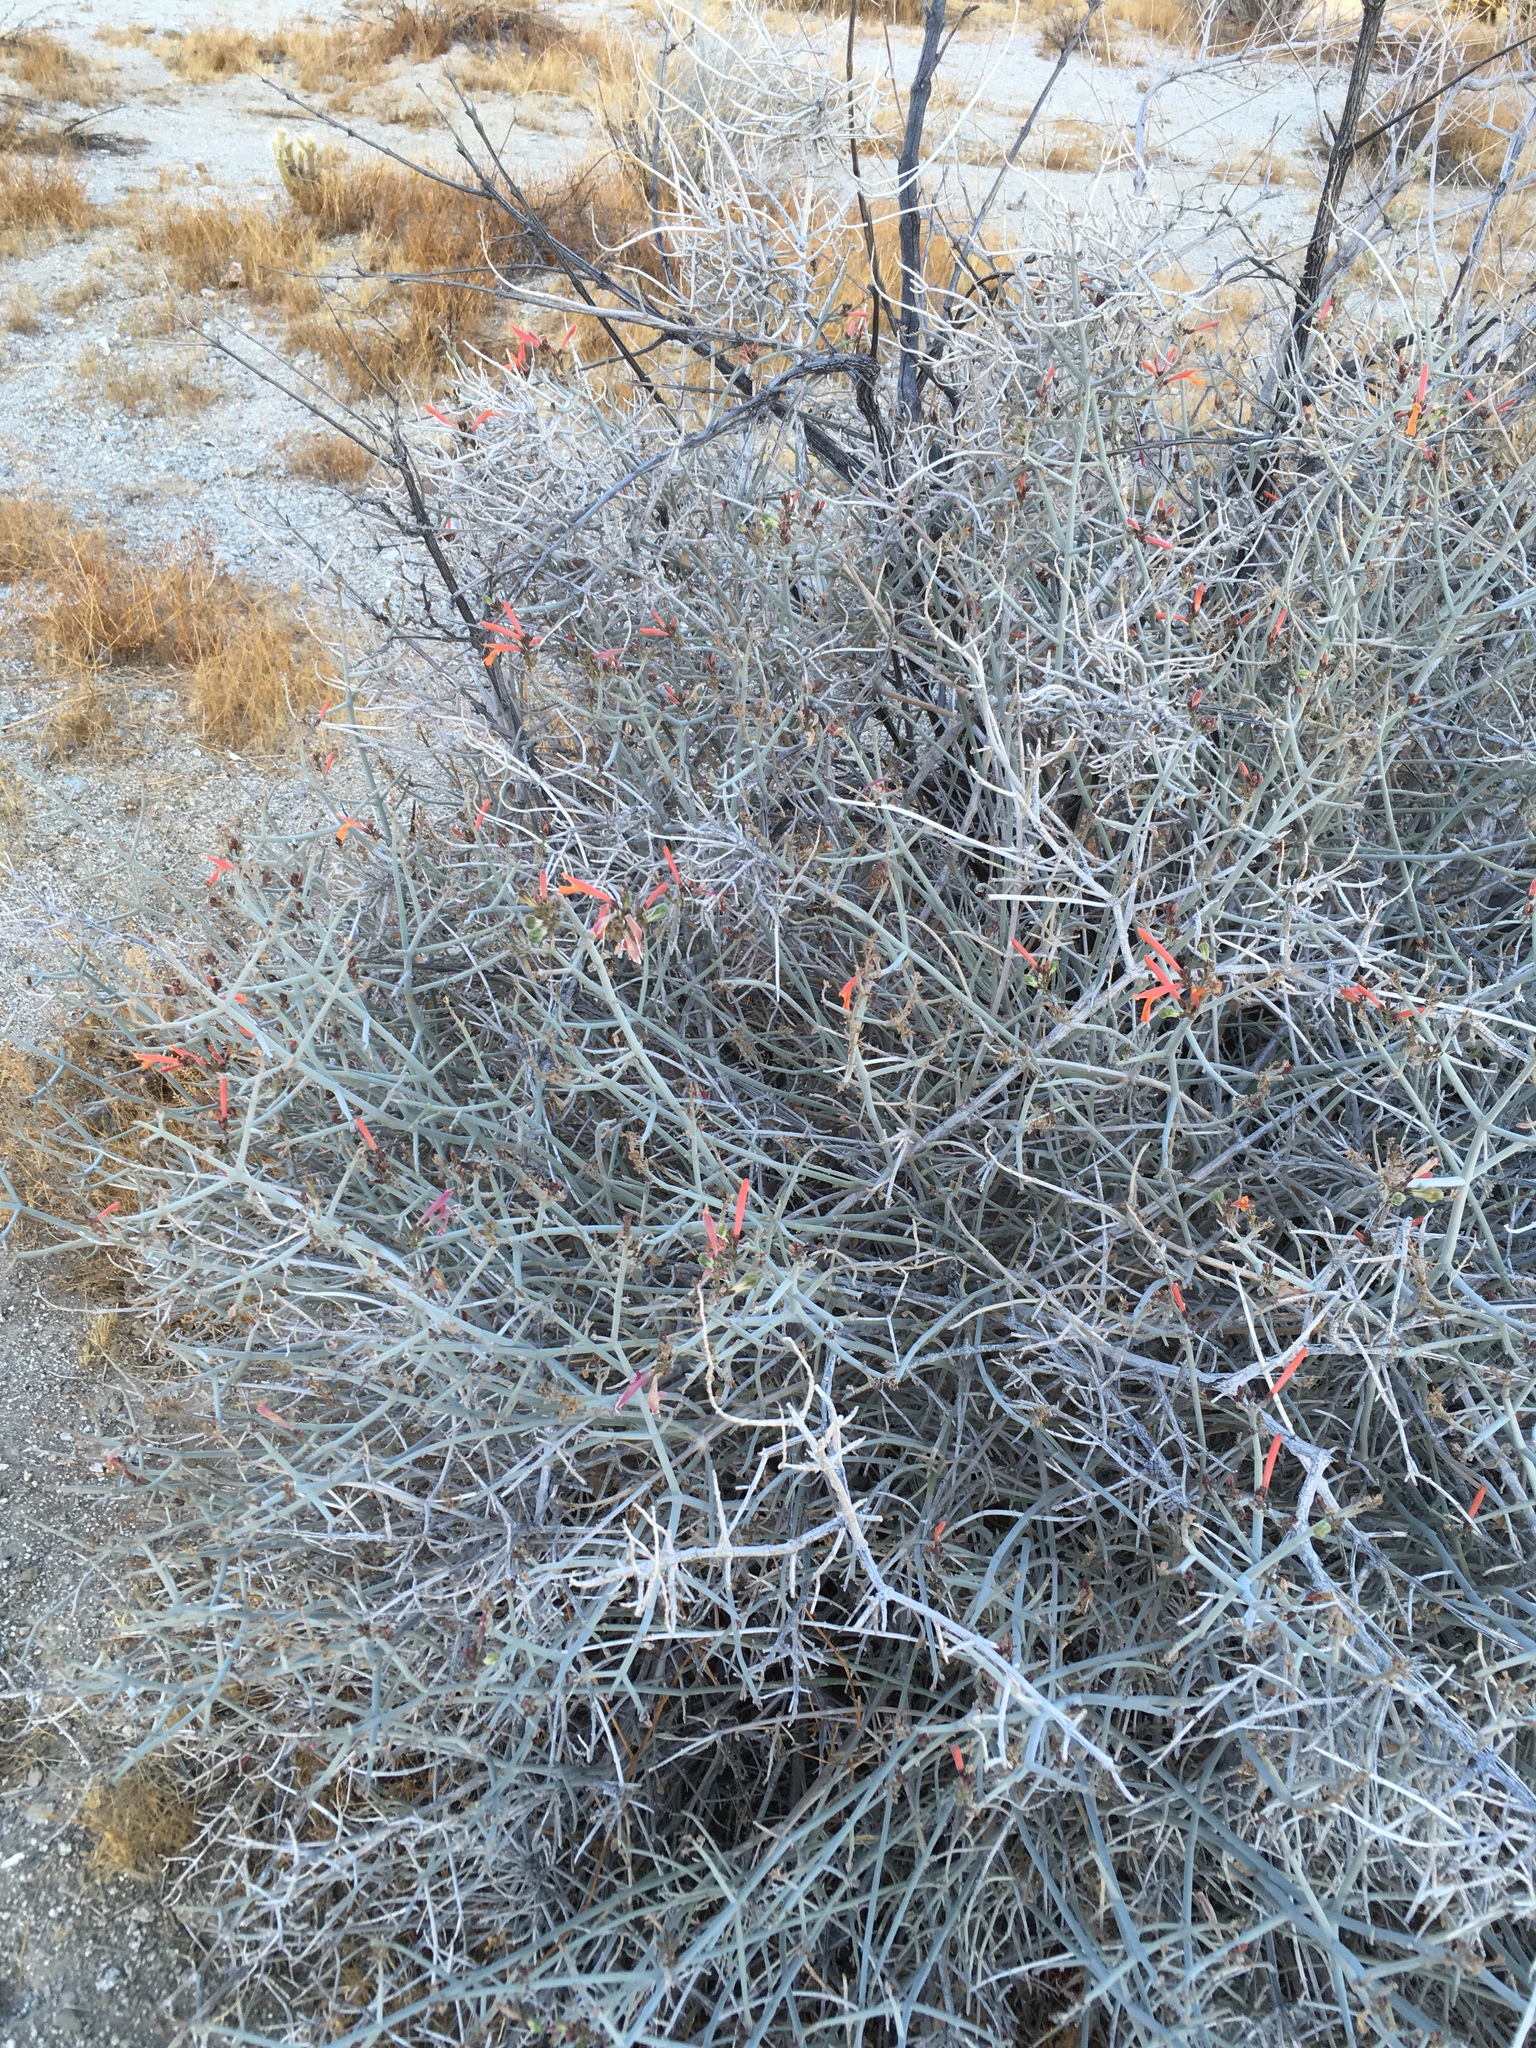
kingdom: Plantae
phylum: Tracheophyta
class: Magnoliopsida
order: Lamiales
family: Acanthaceae
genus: Justicia
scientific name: Justicia californica
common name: Chuparosa-honeysuckle
